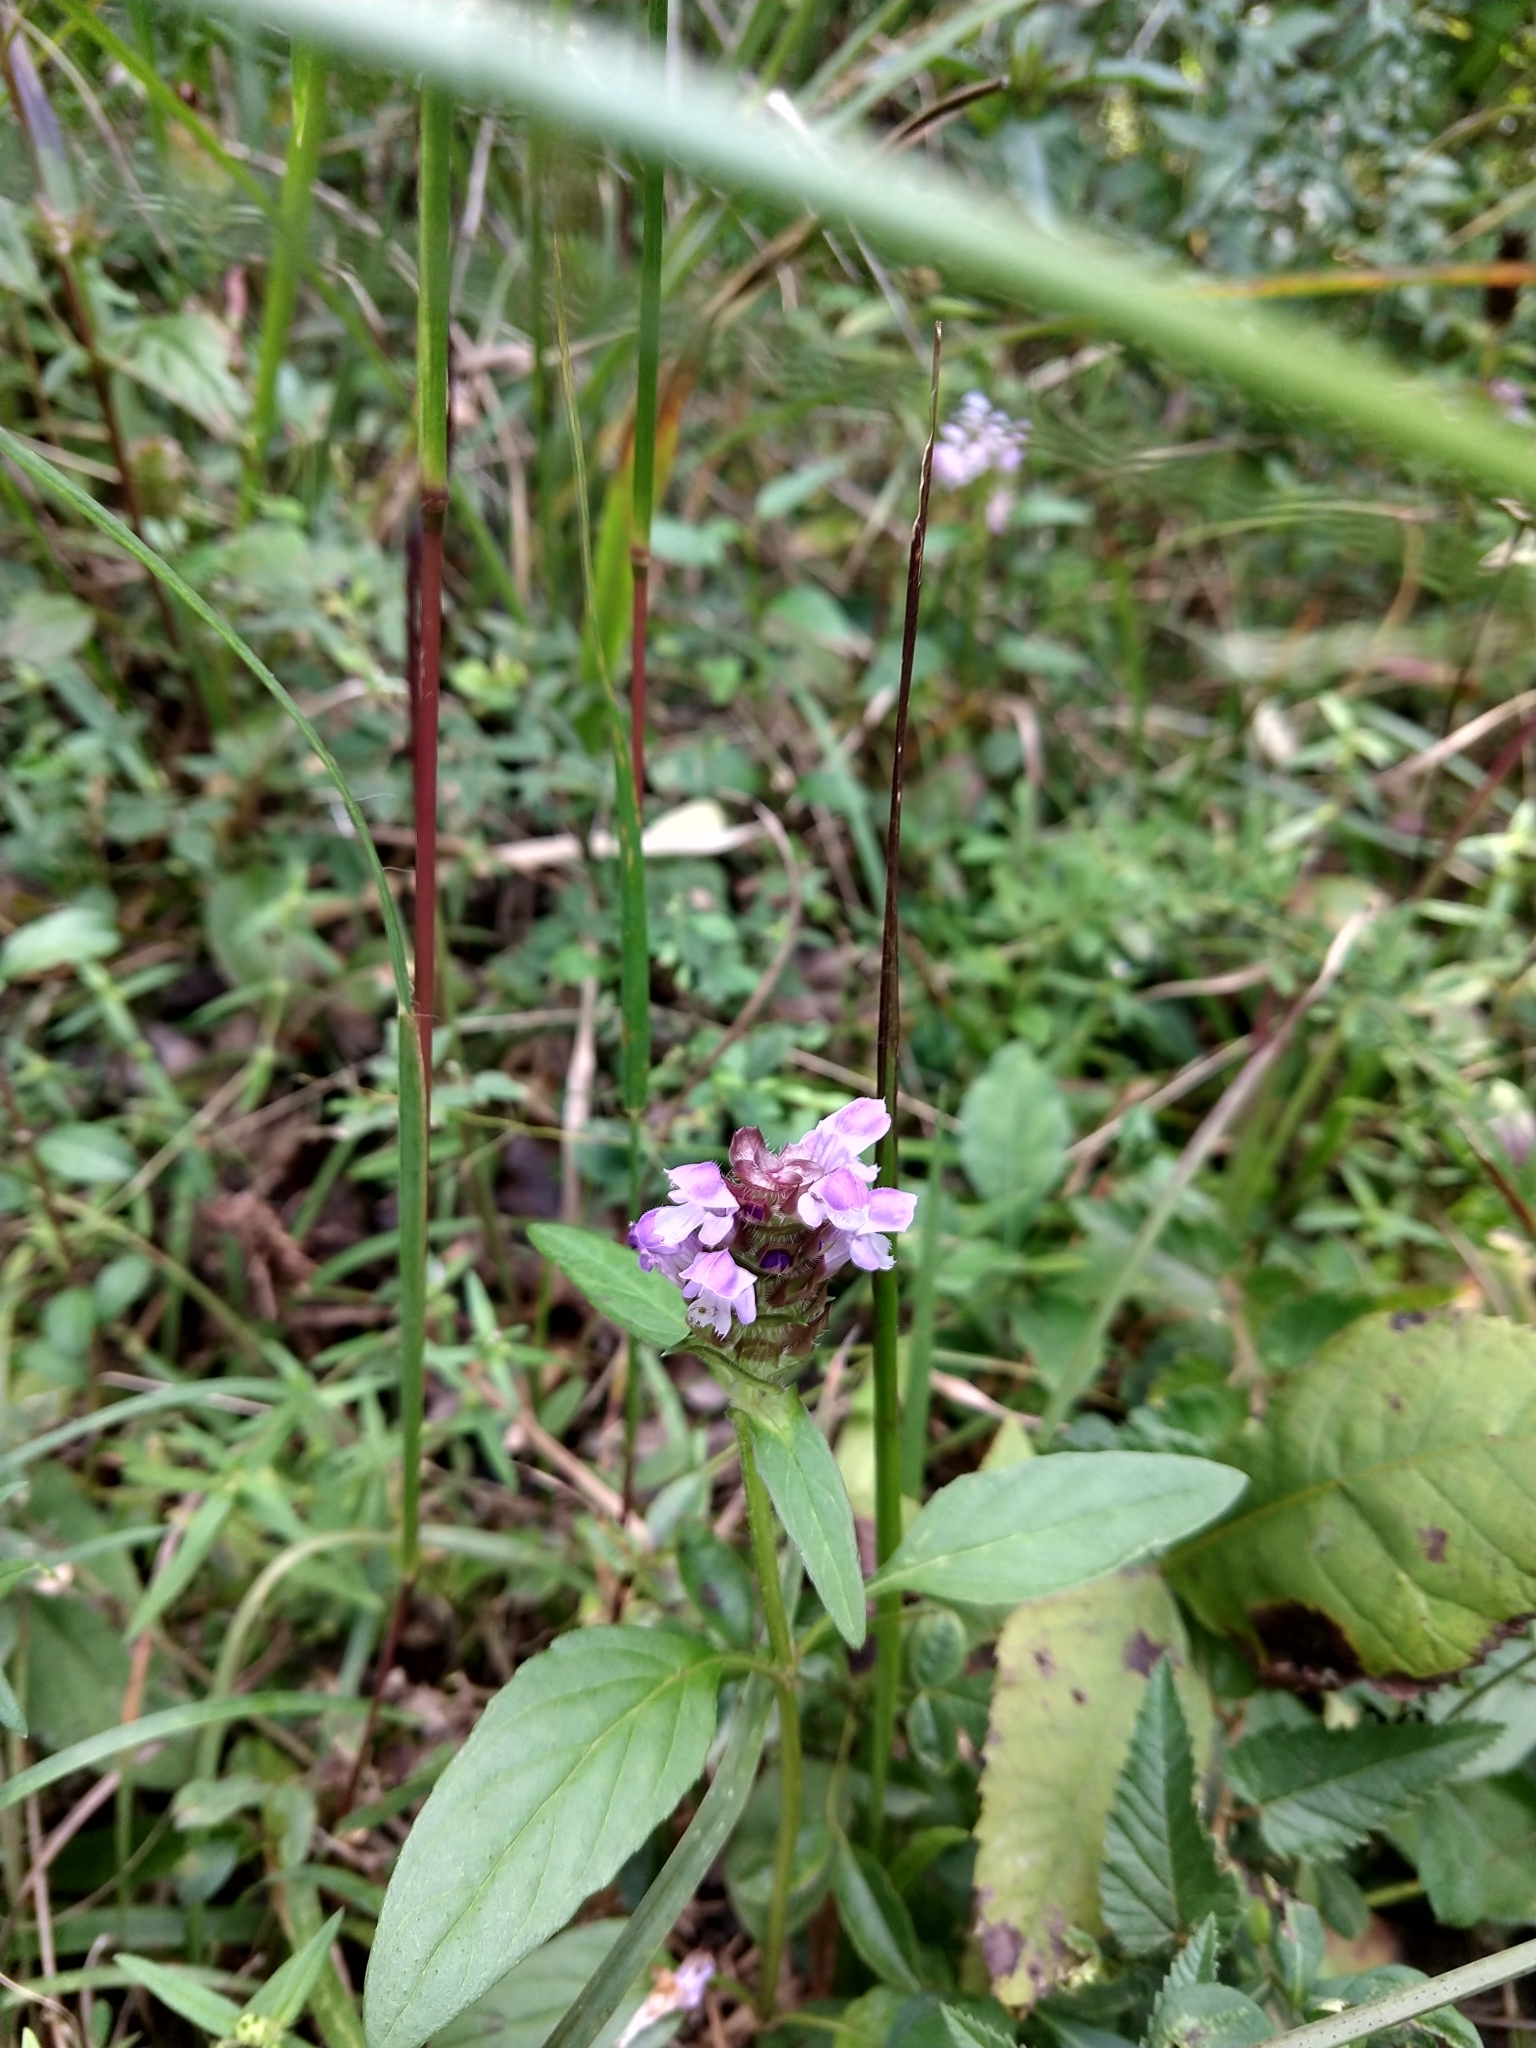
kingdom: Plantae
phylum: Tracheophyta
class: Magnoliopsida
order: Lamiales
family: Lamiaceae
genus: Prunella
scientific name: Prunella vulgaris
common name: Heal-all
